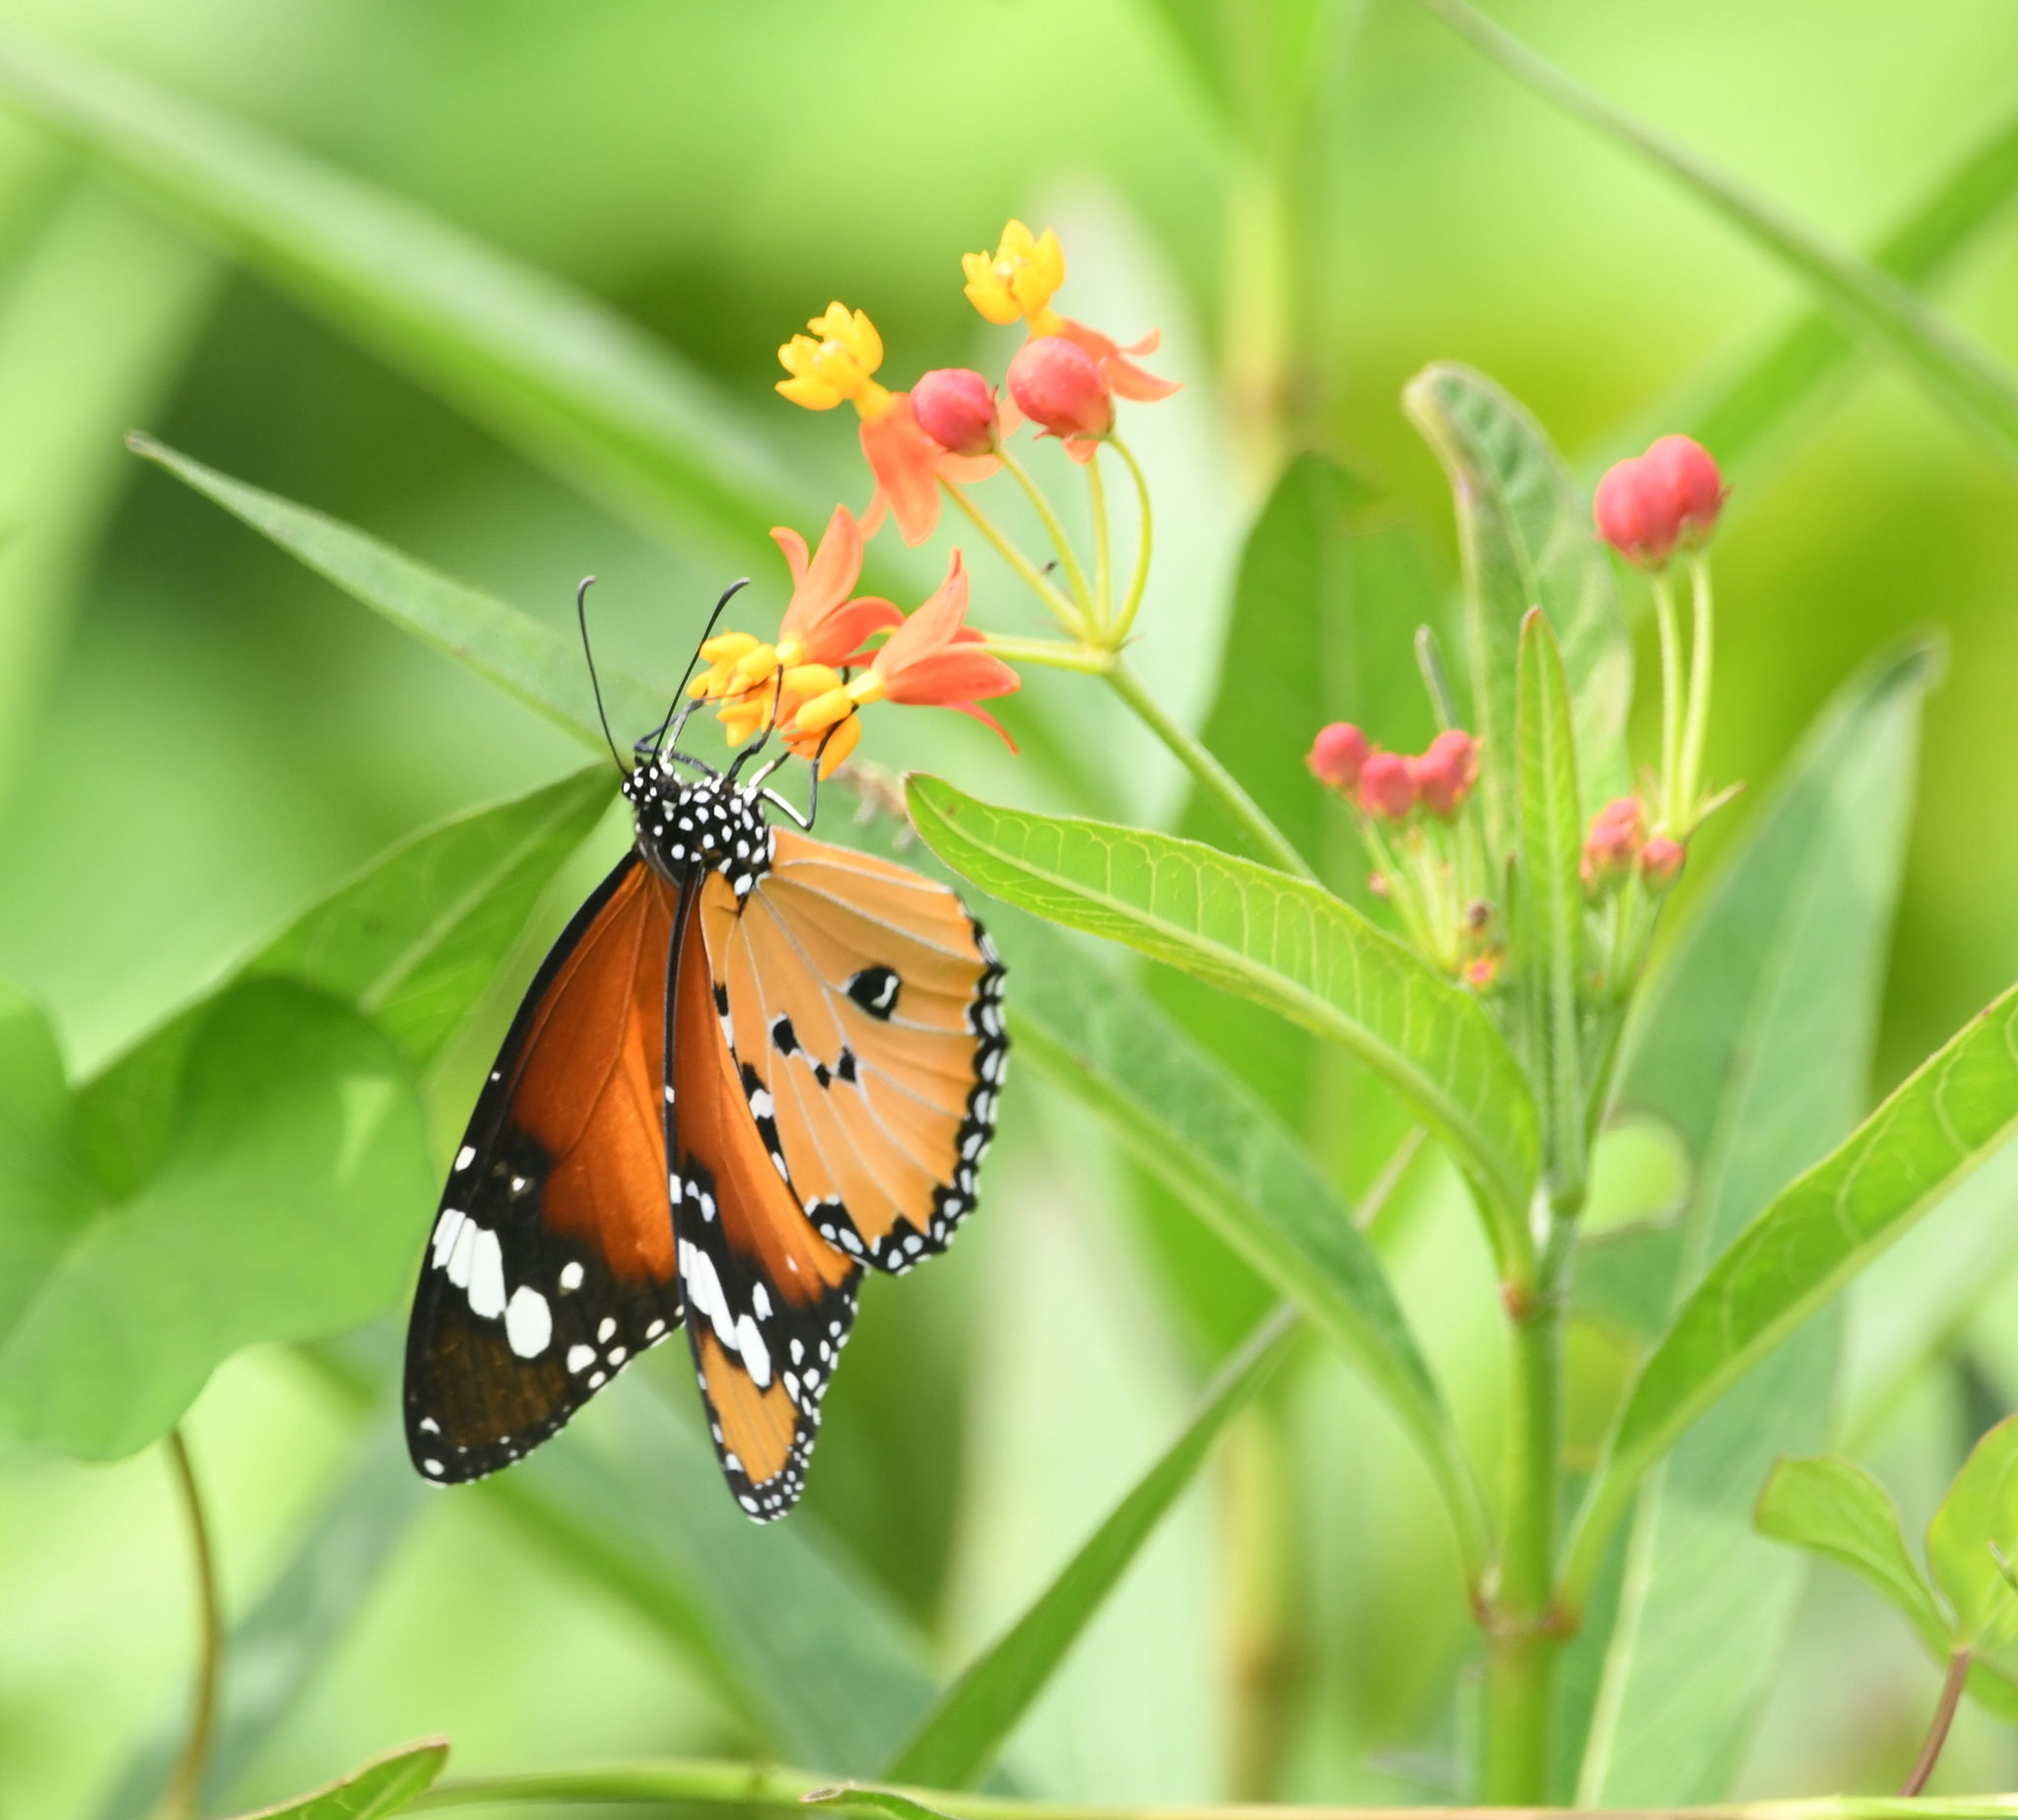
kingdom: Animalia
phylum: Arthropoda
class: Insecta
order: Lepidoptera
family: Nymphalidae
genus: Danaus
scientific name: Danaus chrysippus
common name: Plain tiger
